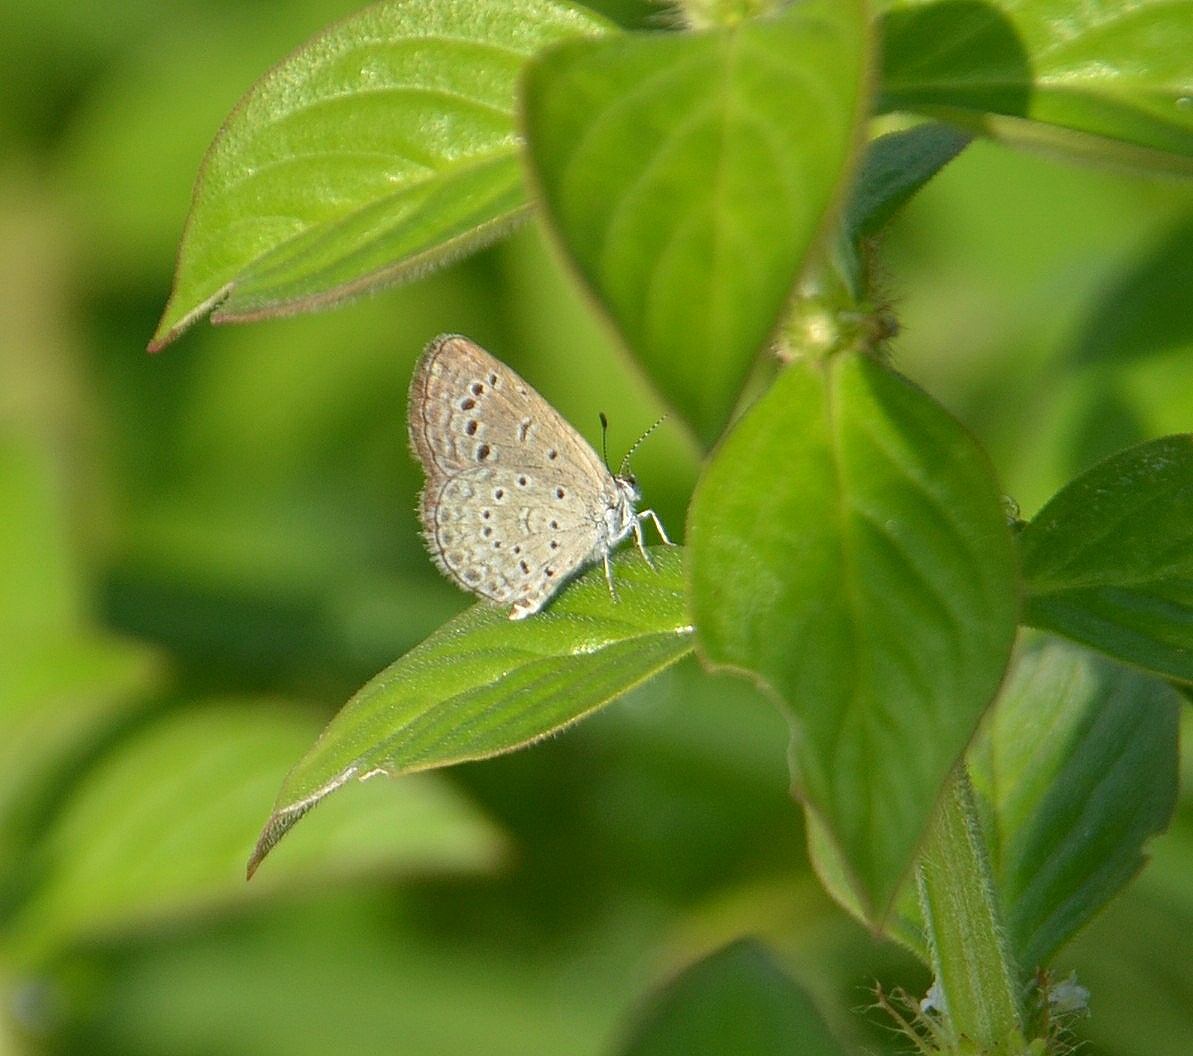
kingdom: Animalia
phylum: Arthropoda
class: Insecta
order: Lepidoptera
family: Lycaenidae
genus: Zizeeria
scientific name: Zizeeria karsandra
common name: Dark grass blue
